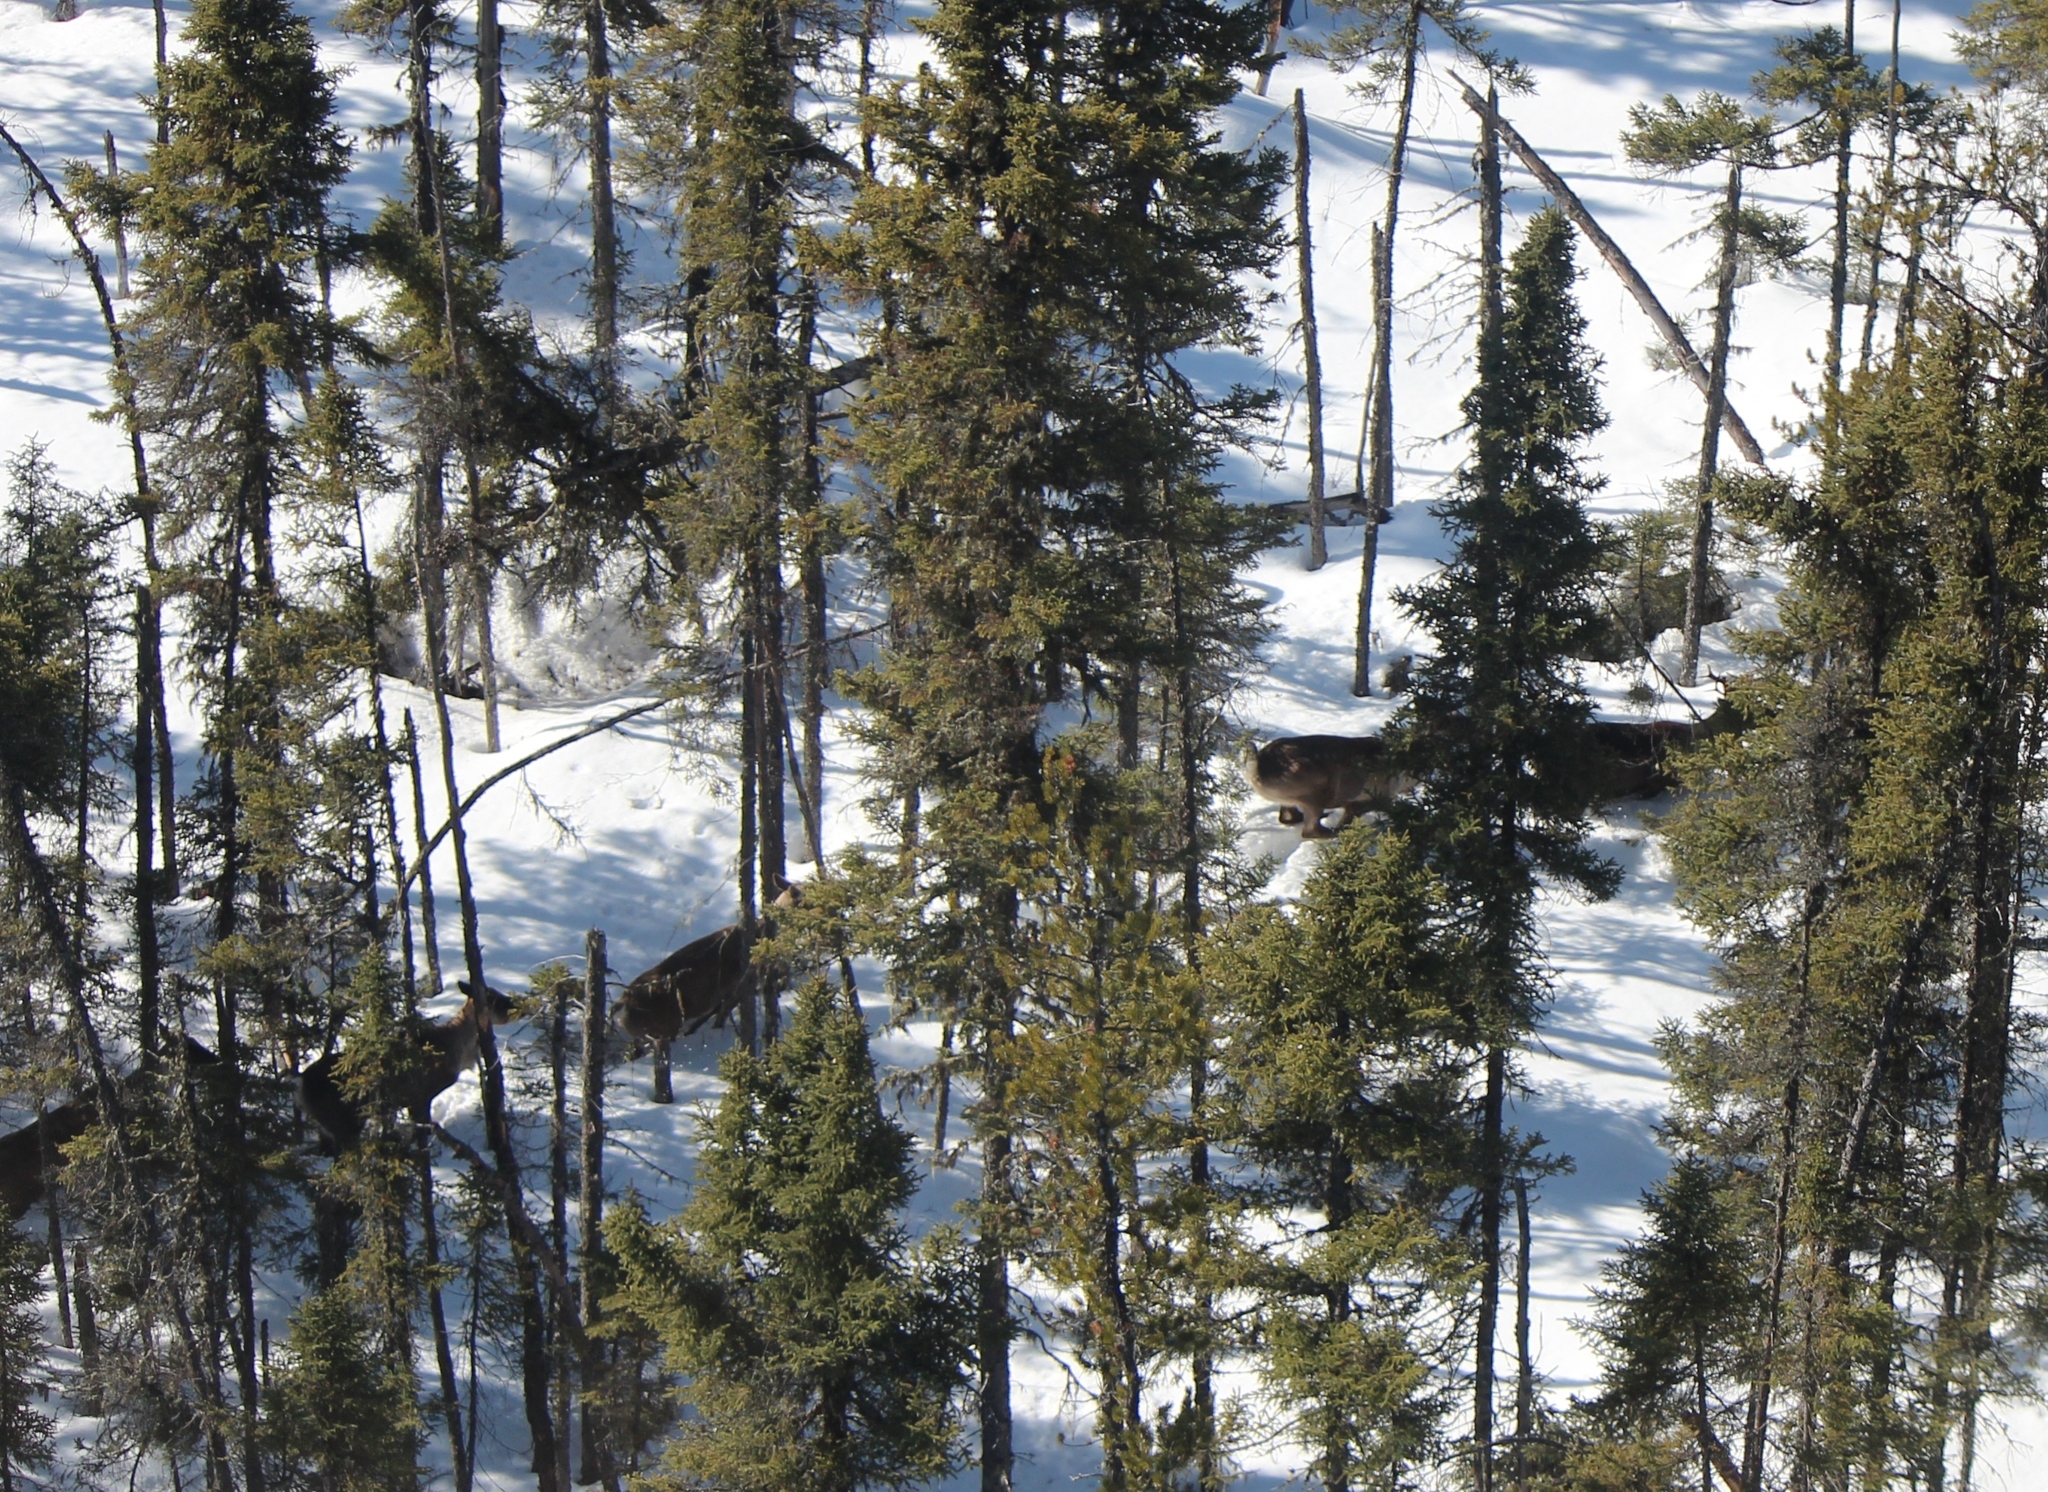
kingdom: Animalia
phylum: Chordata
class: Mammalia
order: Artiodactyla
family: Cervidae
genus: Rangifer
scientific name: Rangifer tarandus
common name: Reindeer
